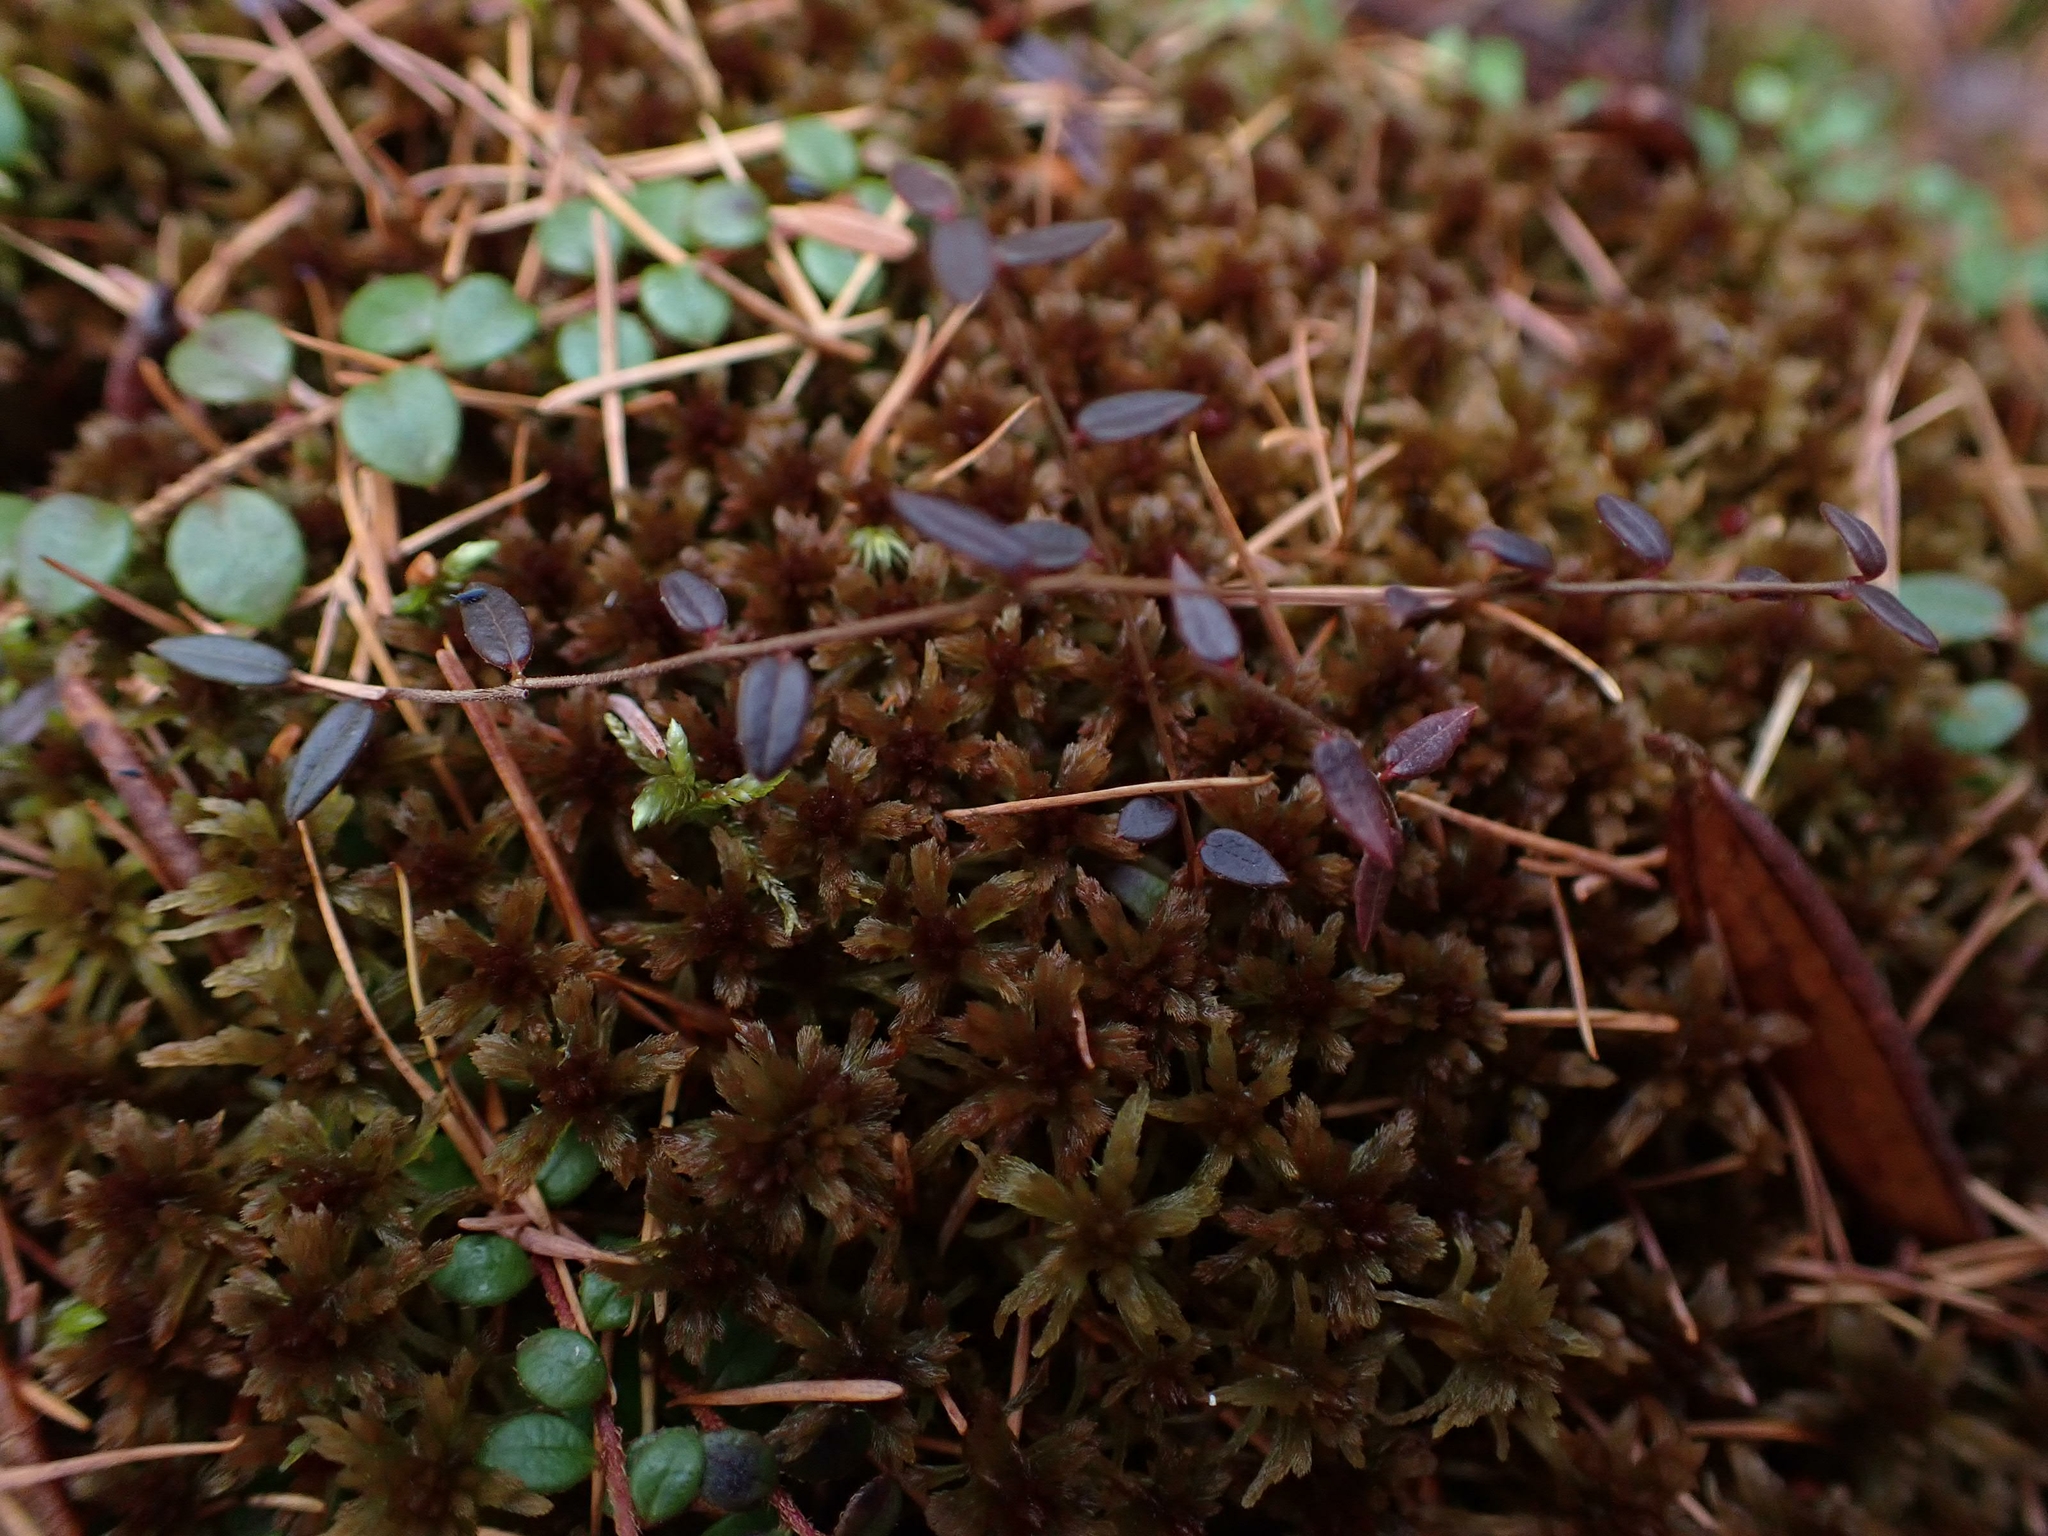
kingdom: Plantae
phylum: Tracheophyta
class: Magnoliopsida
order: Ericales
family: Ericaceae
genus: Vaccinium
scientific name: Vaccinium oxycoccos
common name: Cranberry
